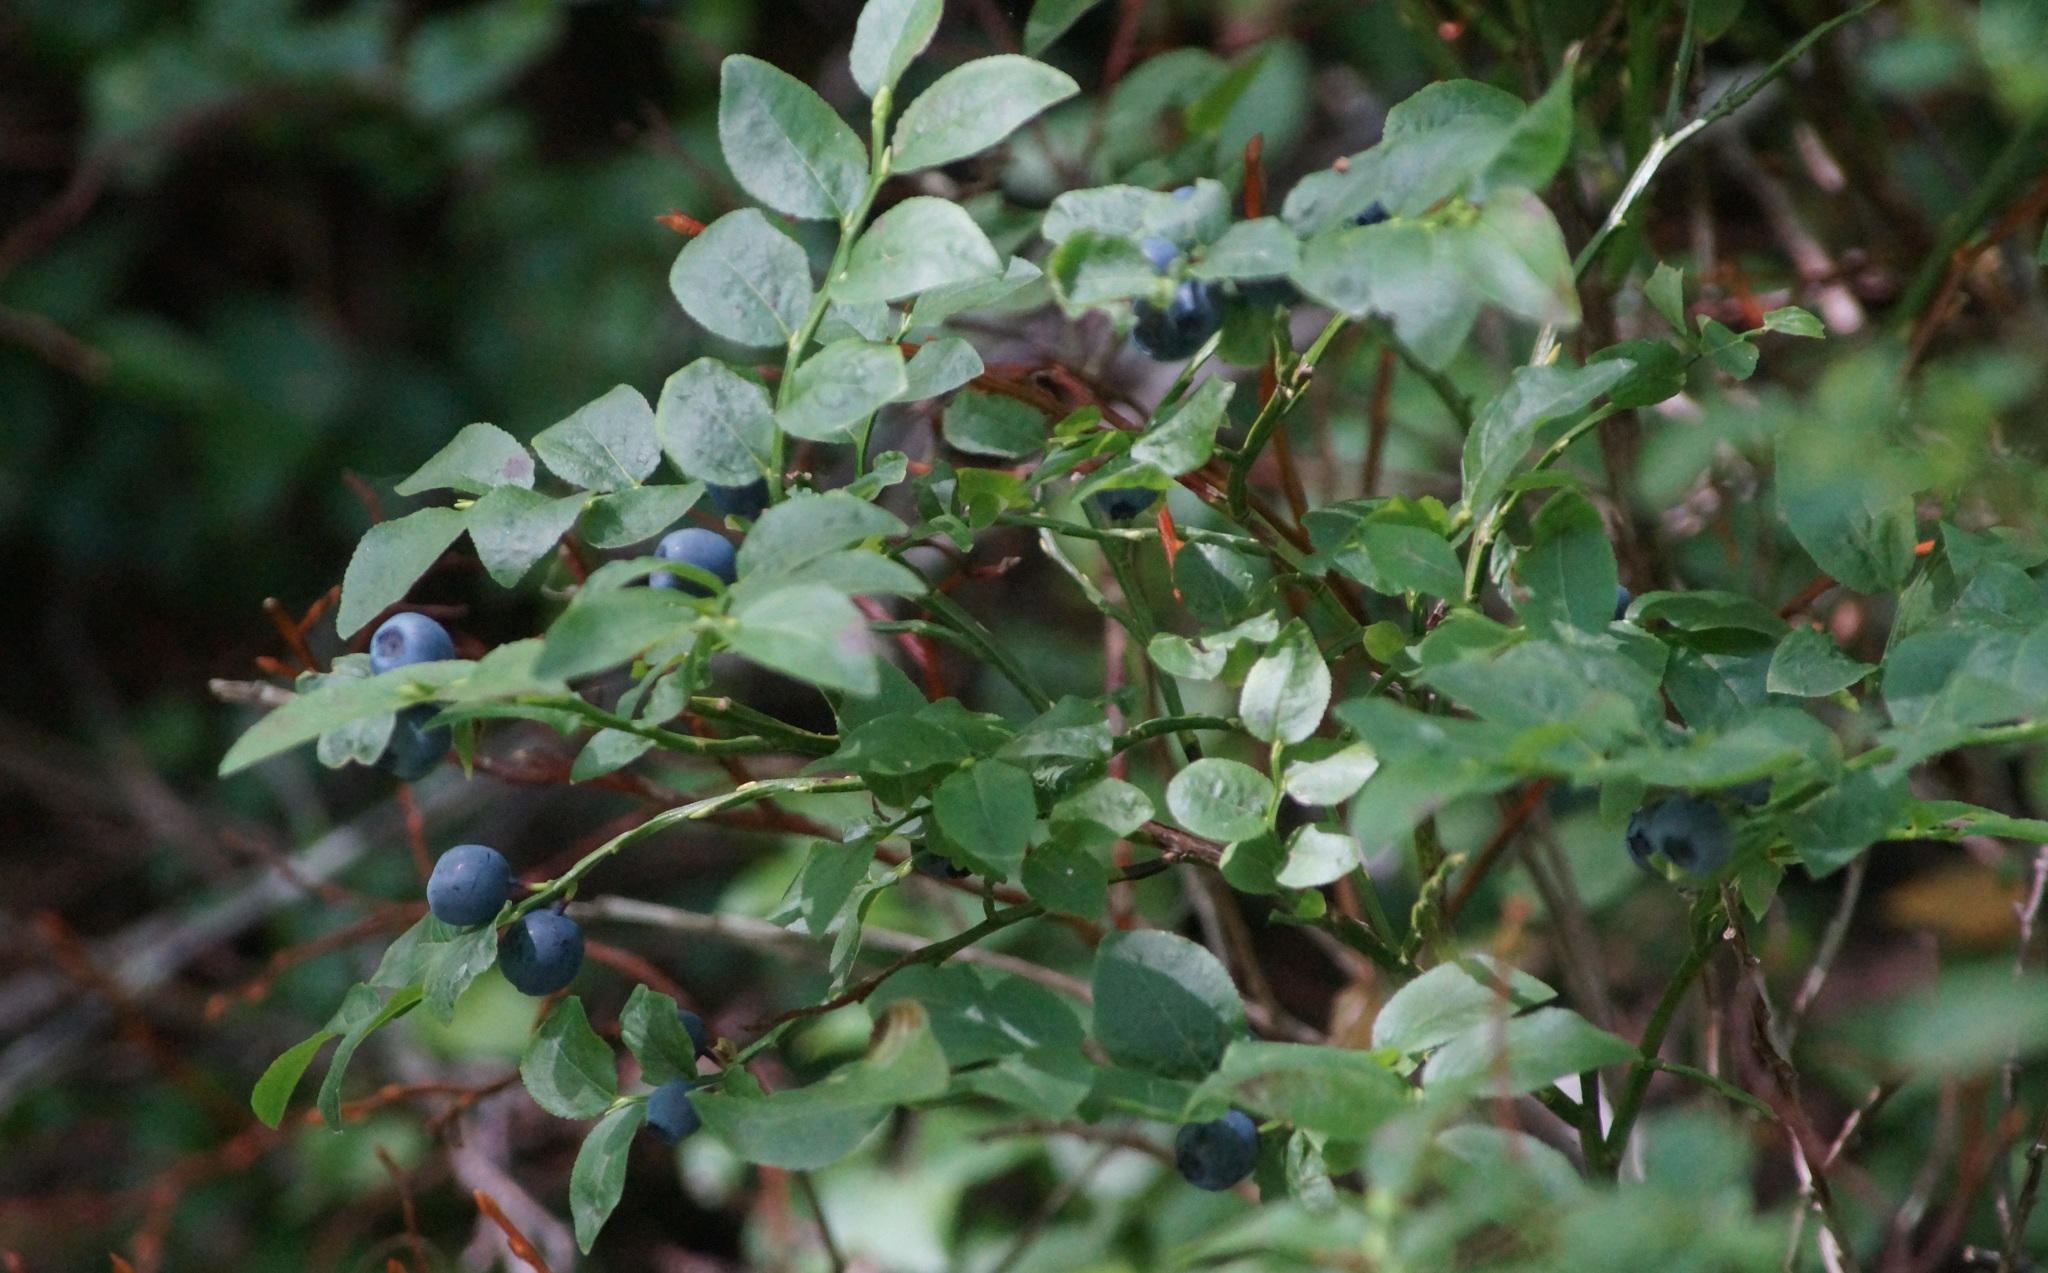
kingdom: Plantae
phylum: Tracheophyta
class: Magnoliopsida
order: Ericales
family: Ericaceae
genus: Vaccinium
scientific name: Vaccinium myrtillus
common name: Bilberry
